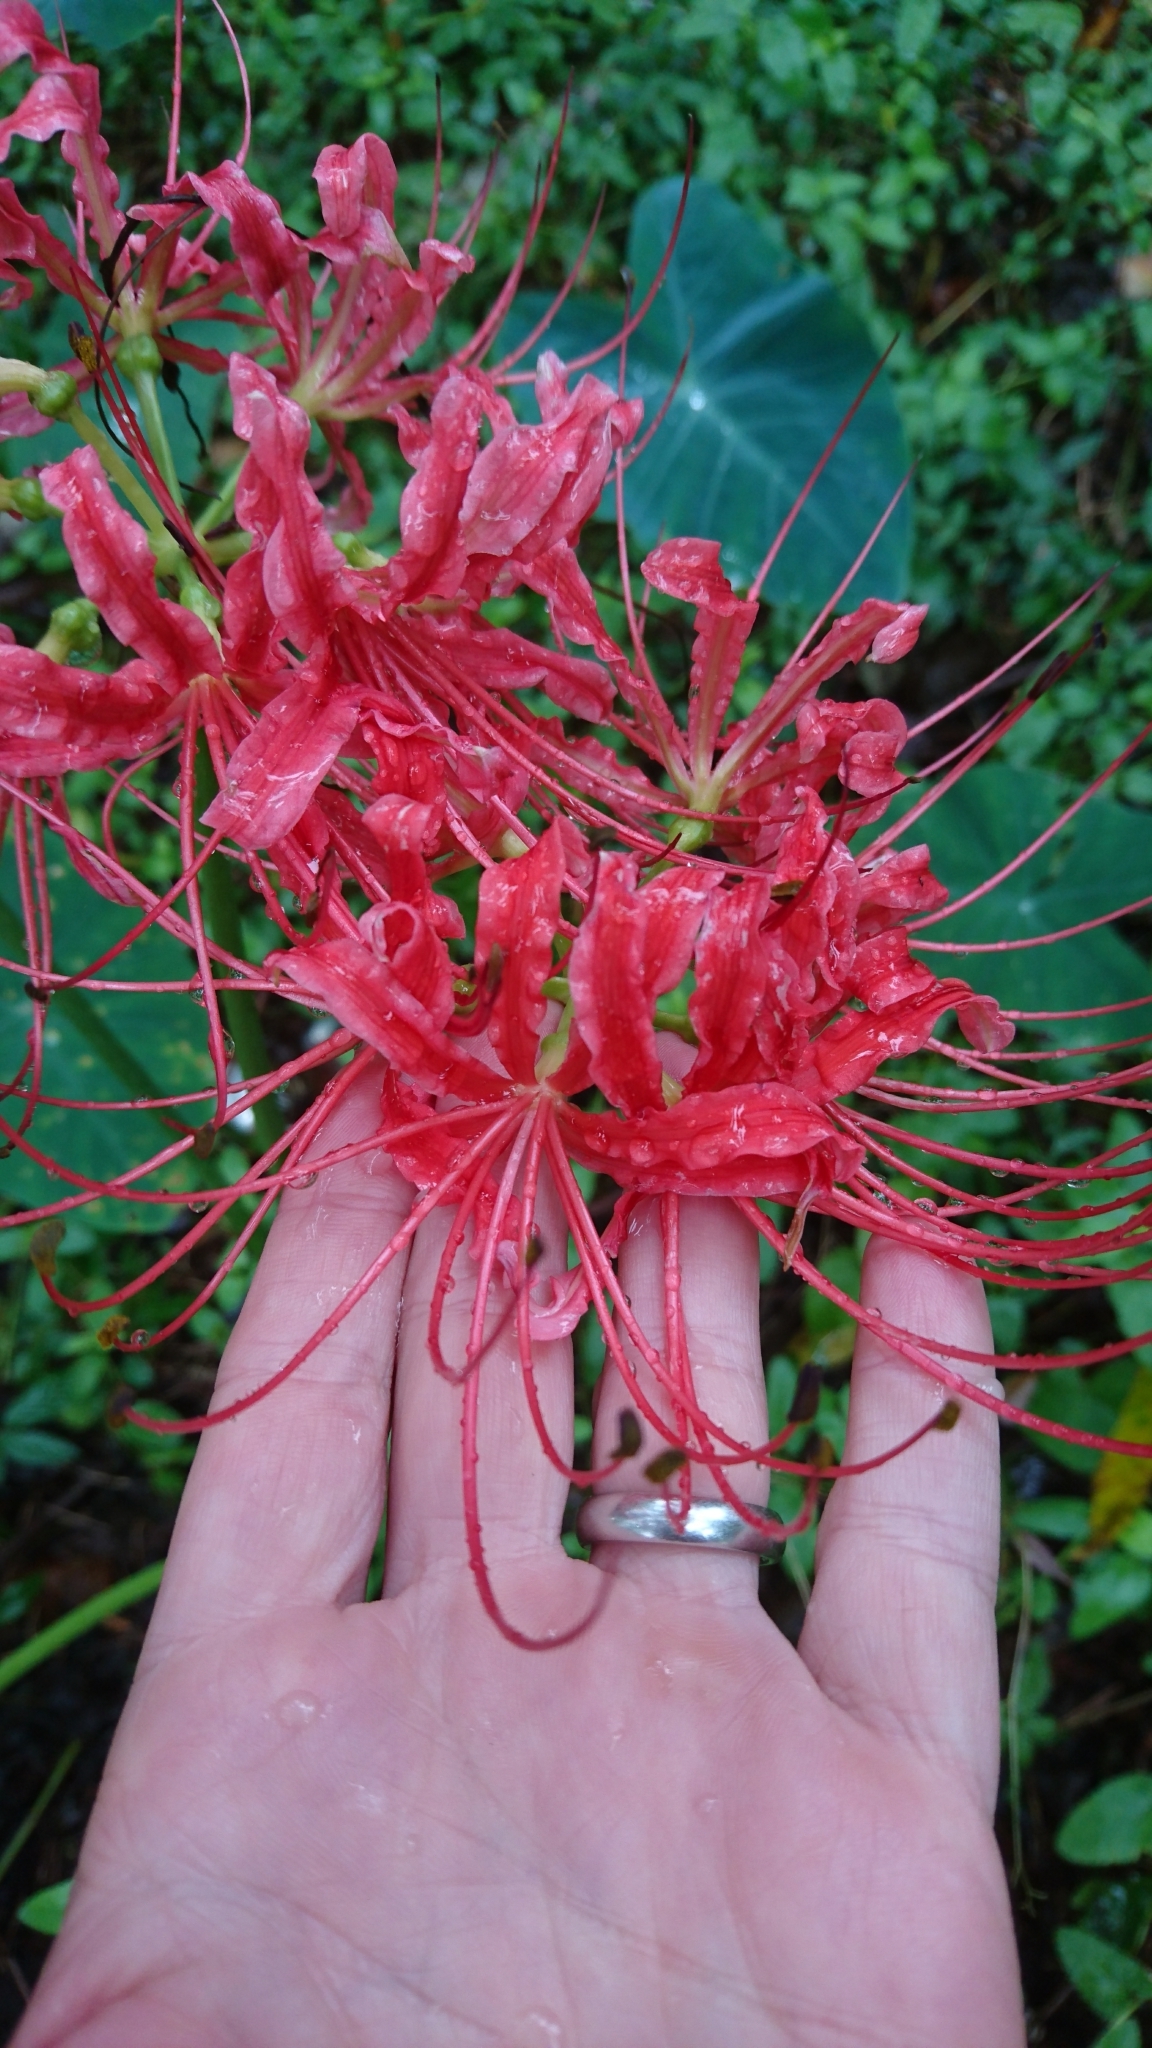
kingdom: Plantae
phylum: Tracheophyta
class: Liliopsida
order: Asparagales
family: Amaryllidaceae
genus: Lycoris
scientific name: Lycoris radiata
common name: Red spider lily
